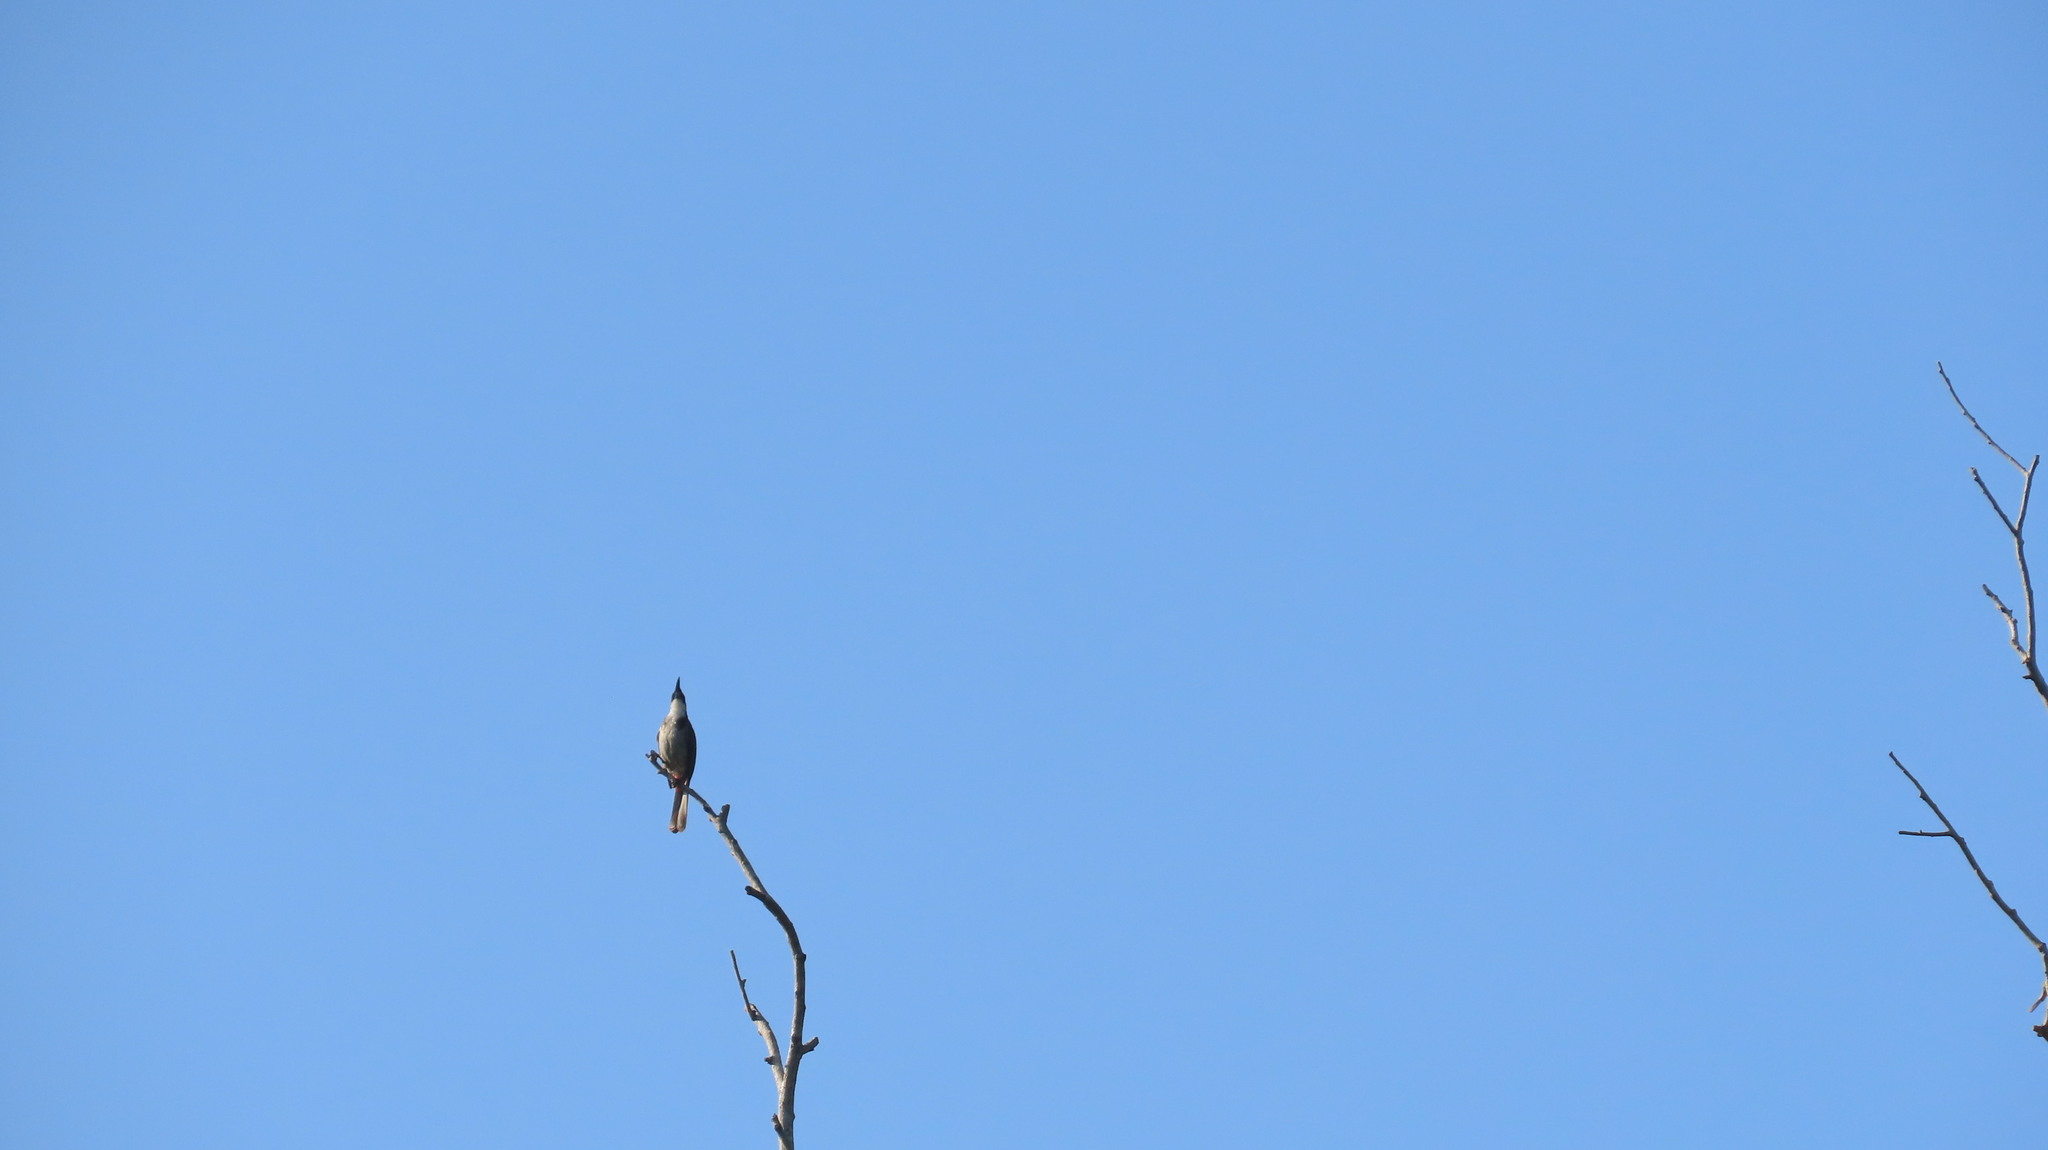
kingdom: Animalia
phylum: Chordata
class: Aves
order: Passeriformes
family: Pycnonotidae
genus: Pycnonotus
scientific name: Pycnonotus jocosus
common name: Red-whiskered bulbul
